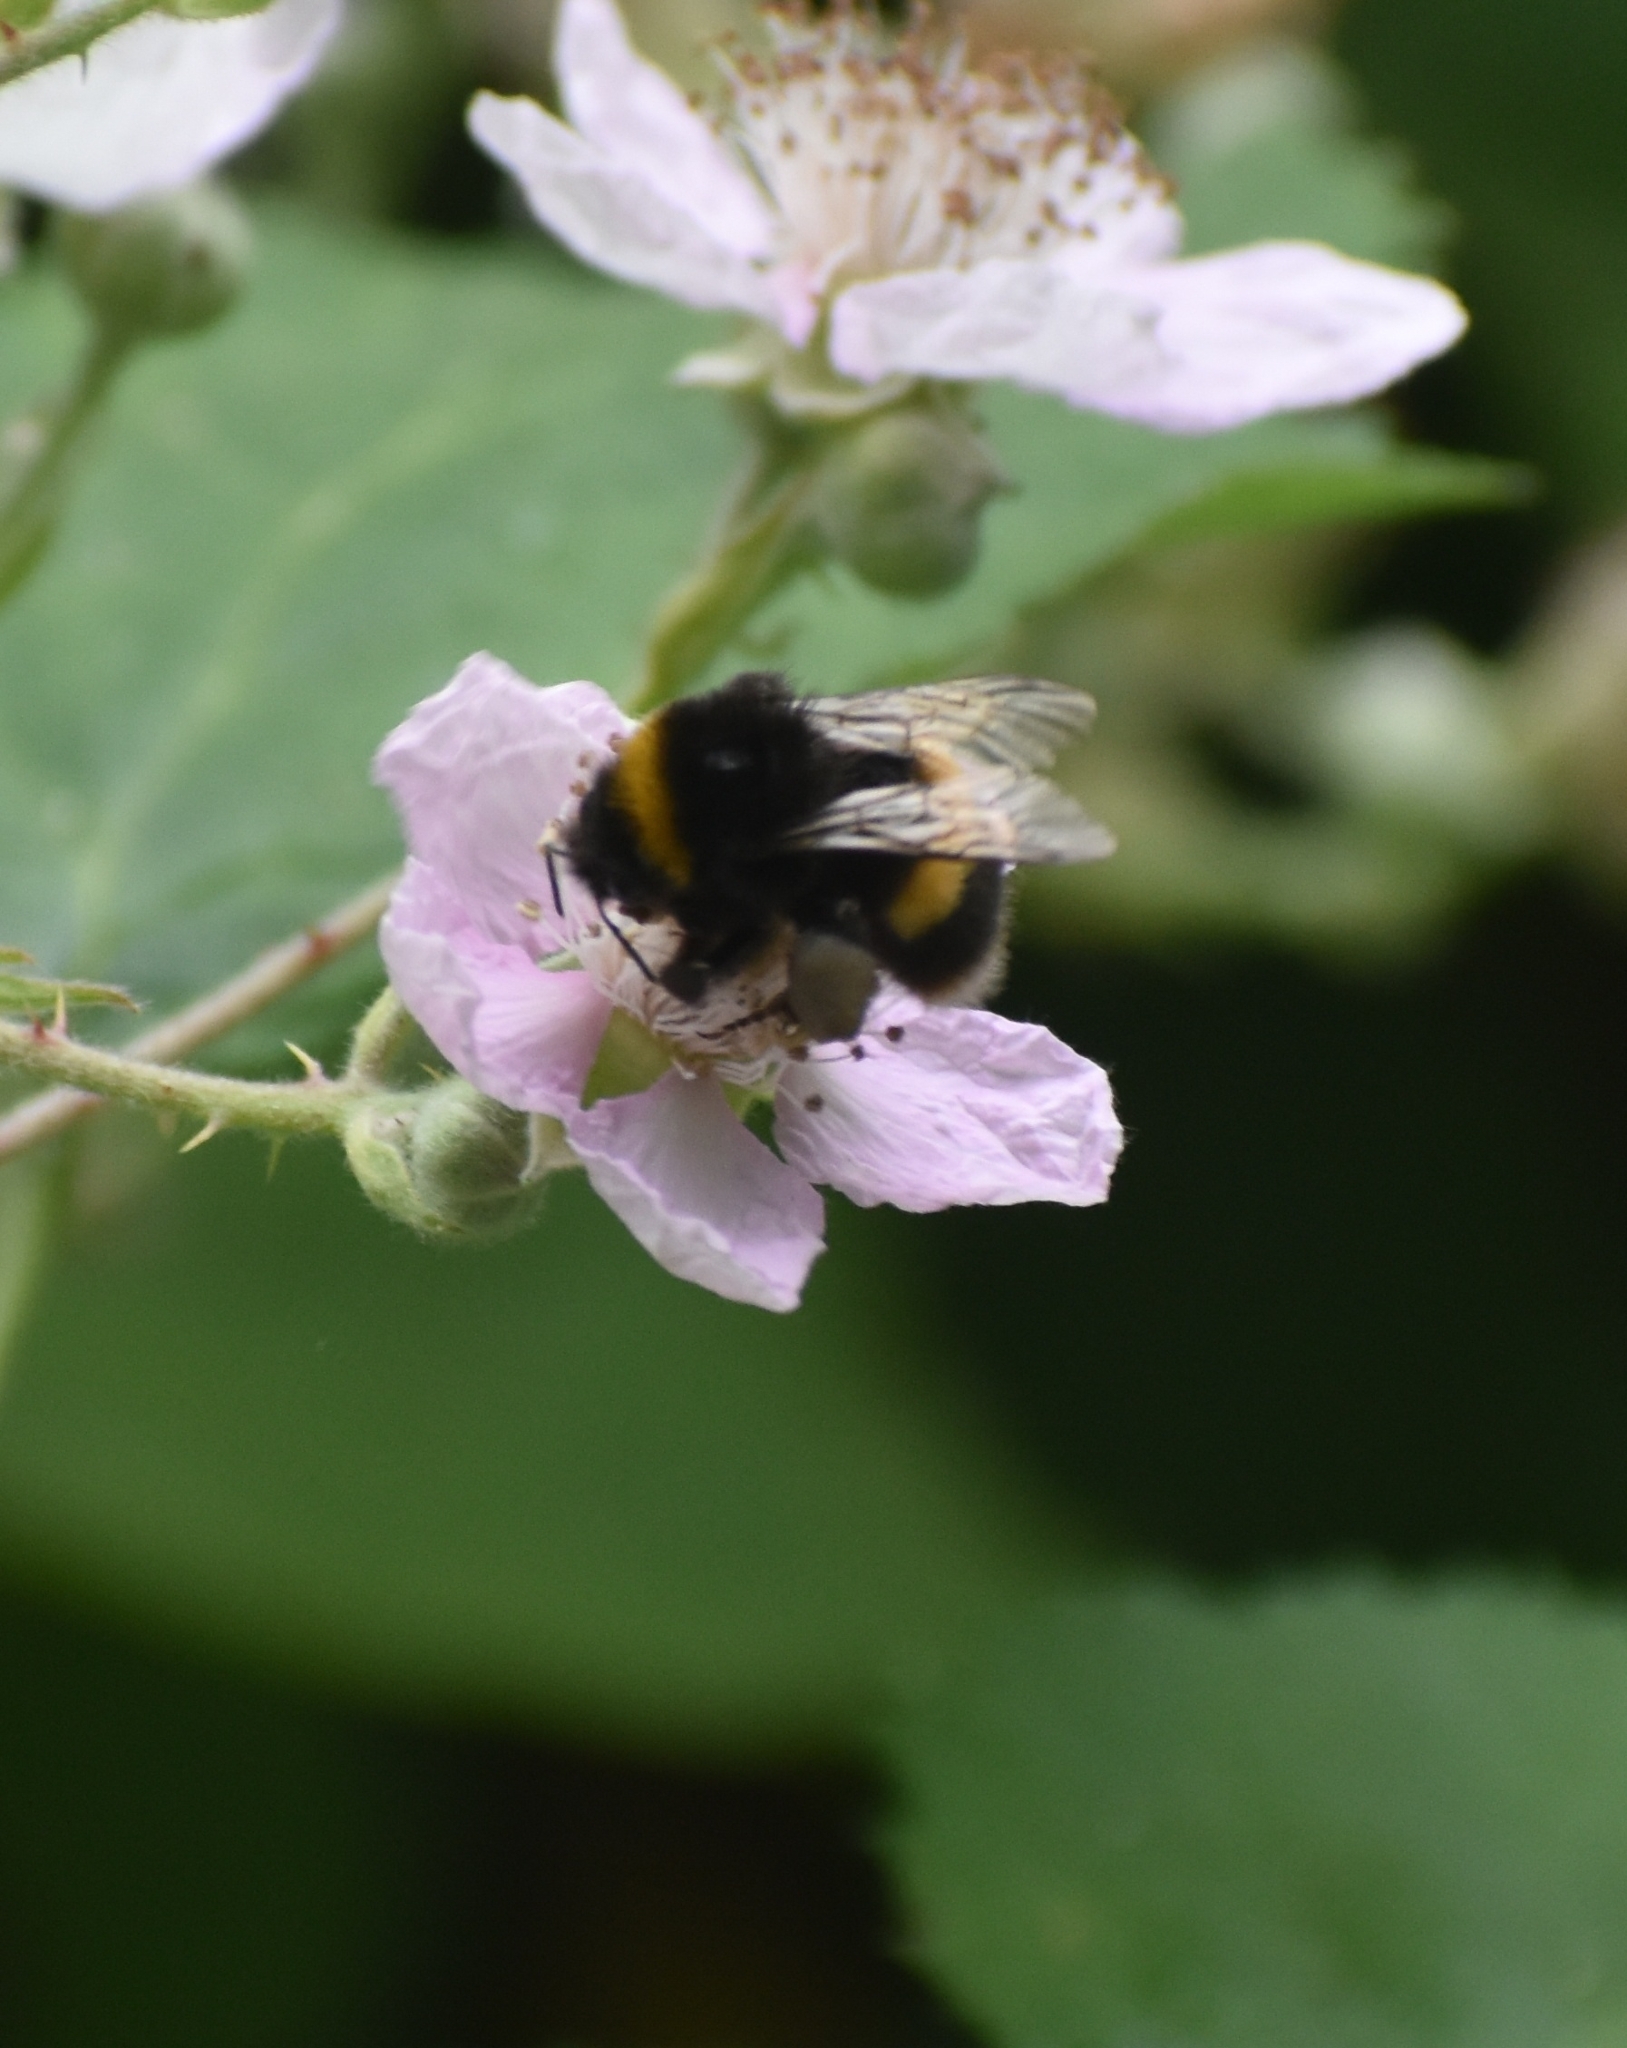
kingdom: Animalia
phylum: Arthropoda
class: Insecta
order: Hymenoptera
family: Apidae
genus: Bombus
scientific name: Bombus terrestris
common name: Buff-tailed bumblebee
